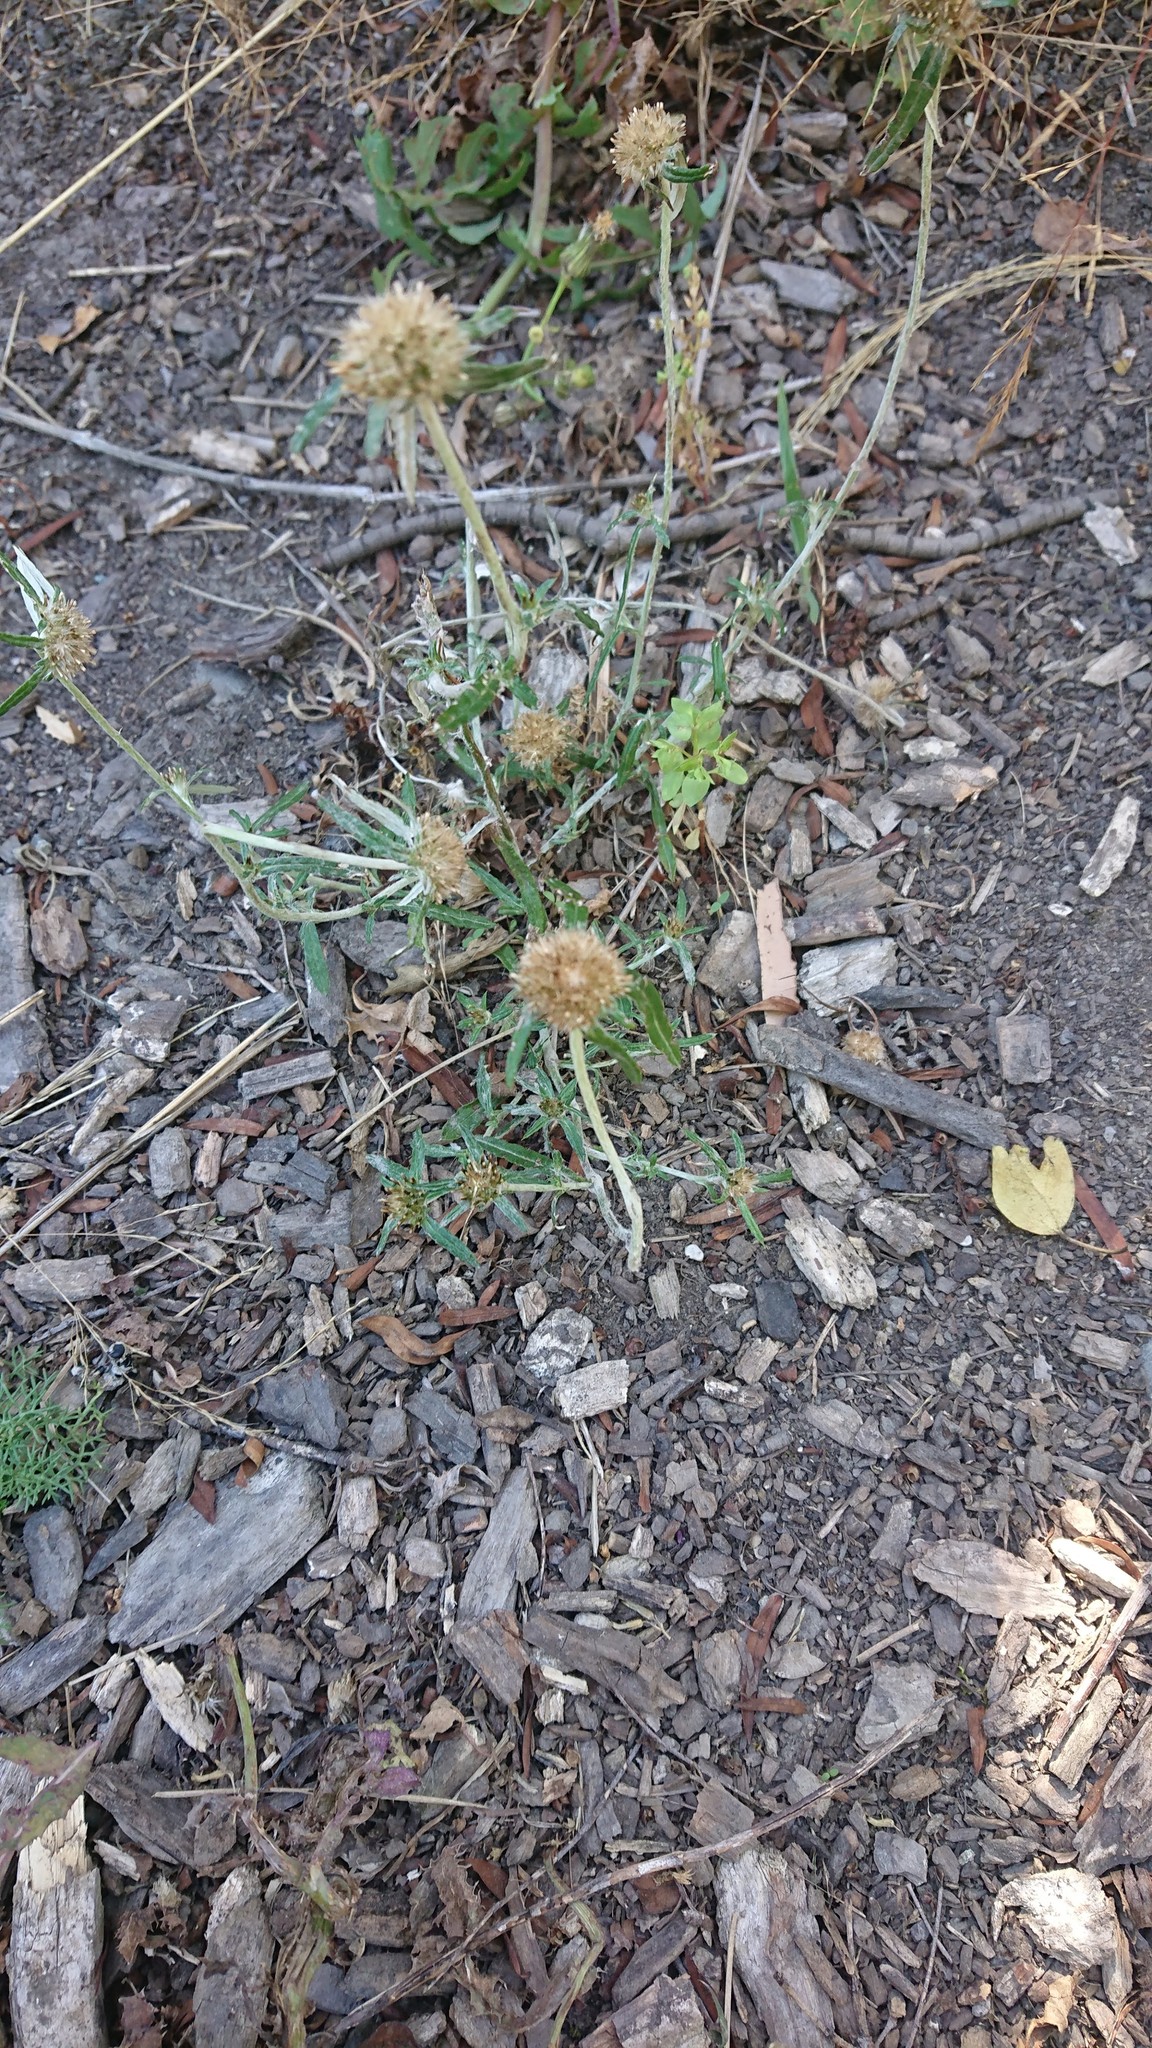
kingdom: Plantae
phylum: Tracheophyta
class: Magnoliopsida
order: Asterales
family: Asteraceae
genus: Euchiton
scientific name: Euchiton sphaericus
